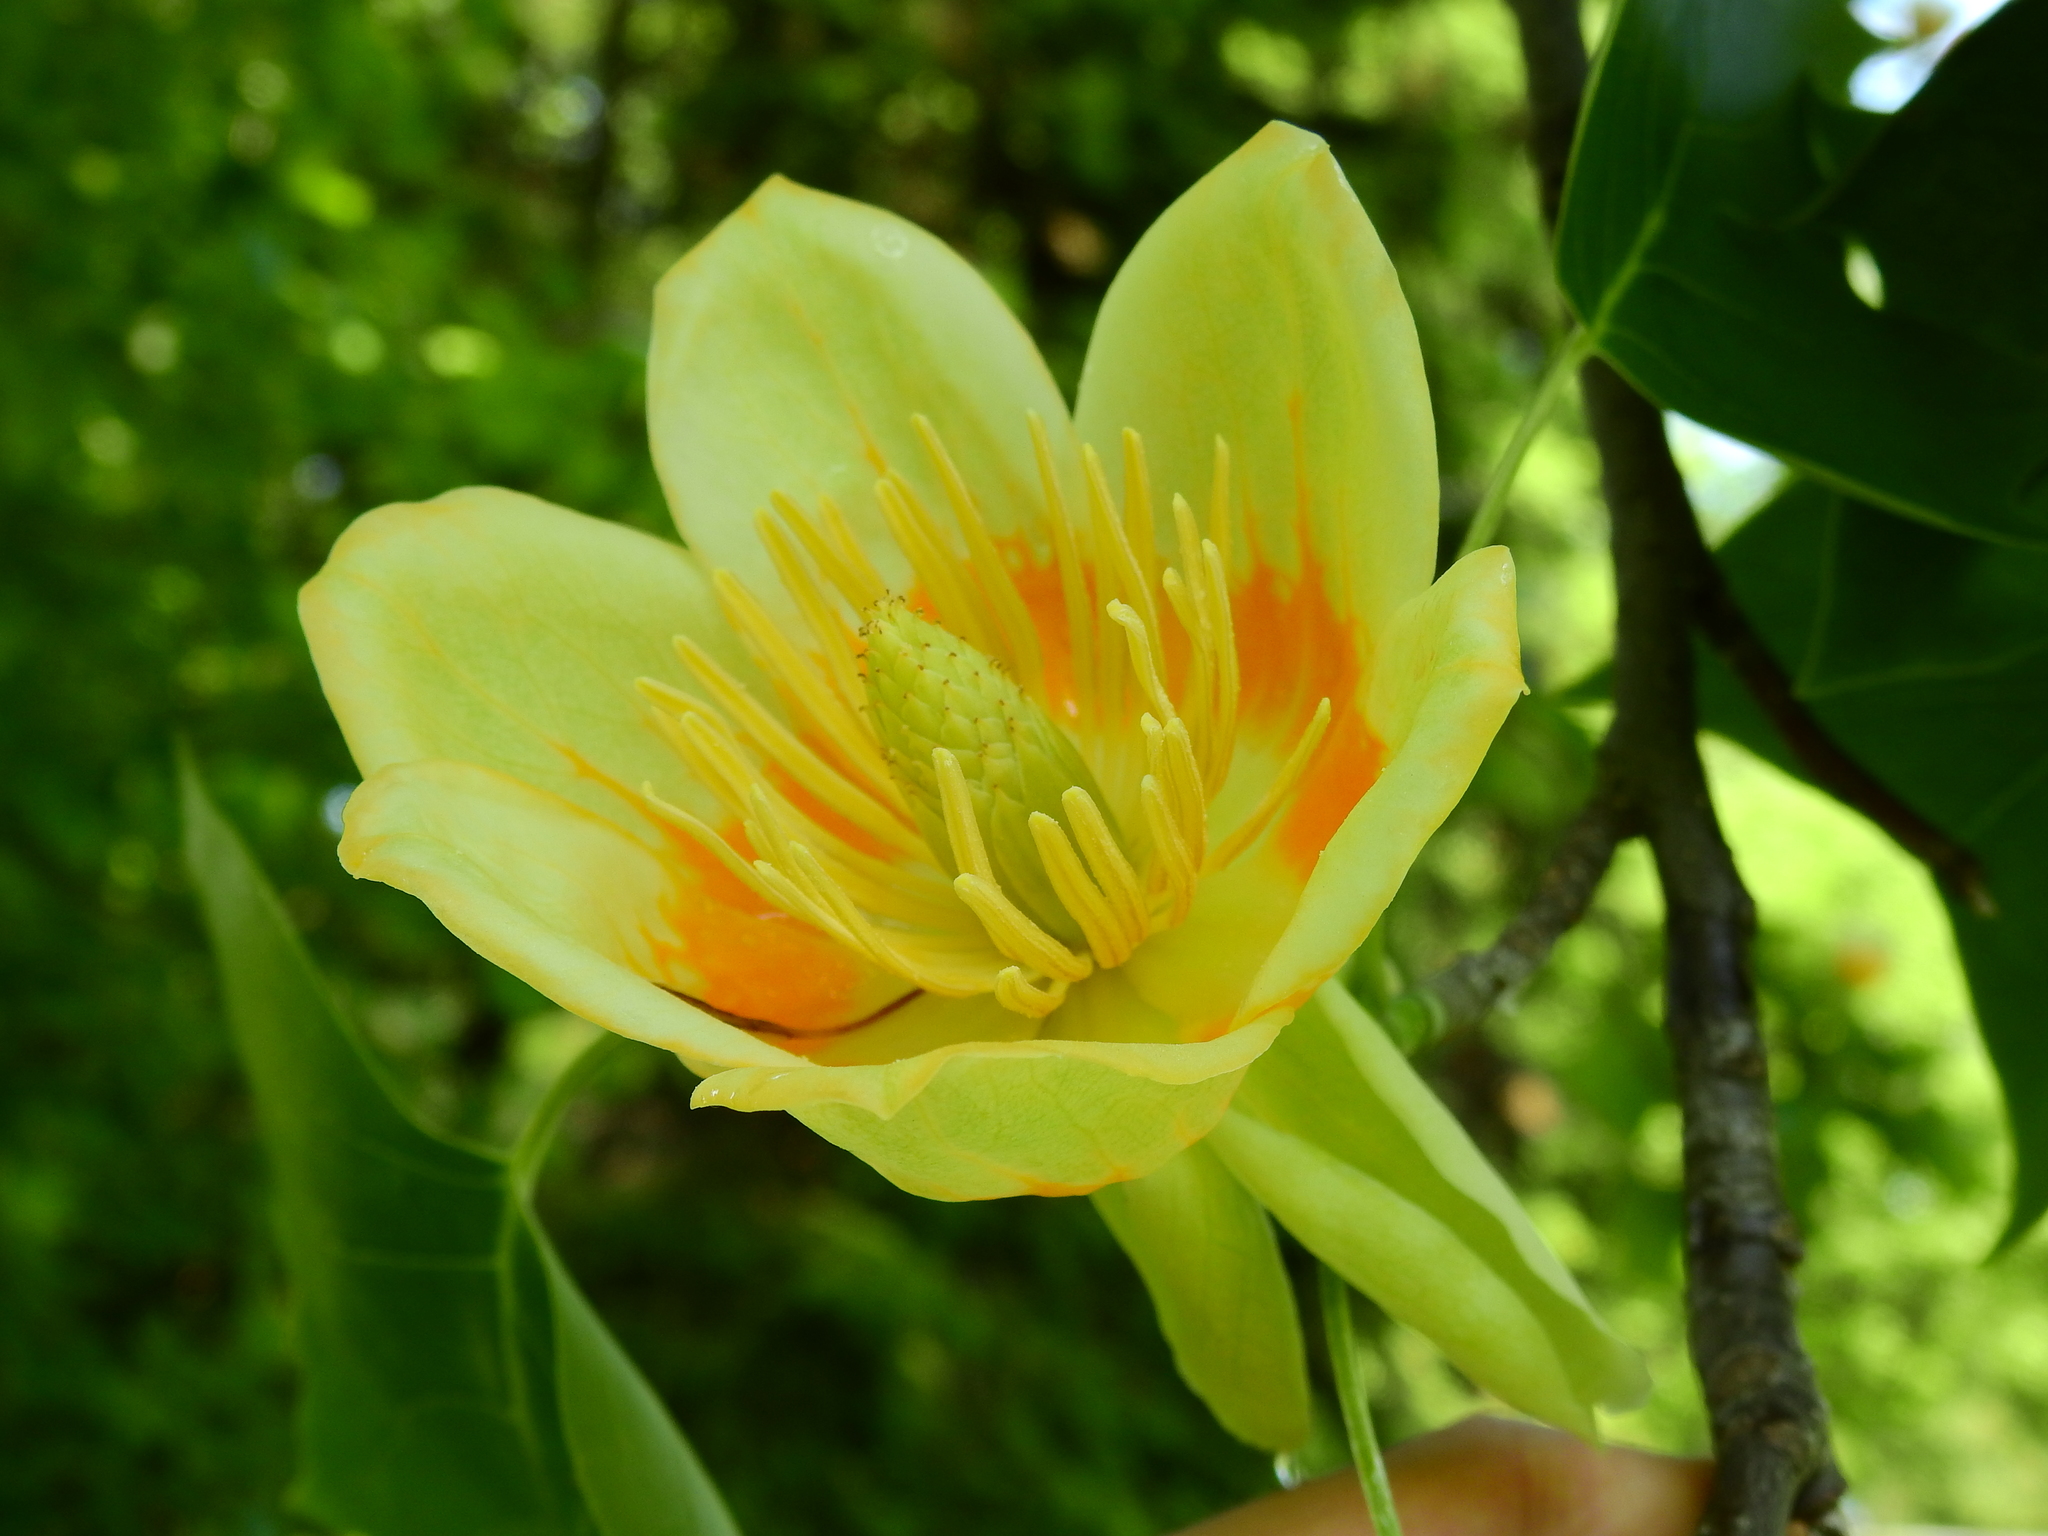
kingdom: Plantae
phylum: Tracheophyta
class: Magnoliopsida
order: Magnoliales
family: Magnoliaceae
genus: Liriodendron
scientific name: Liriodendron tulipifera
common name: Tulip tree
